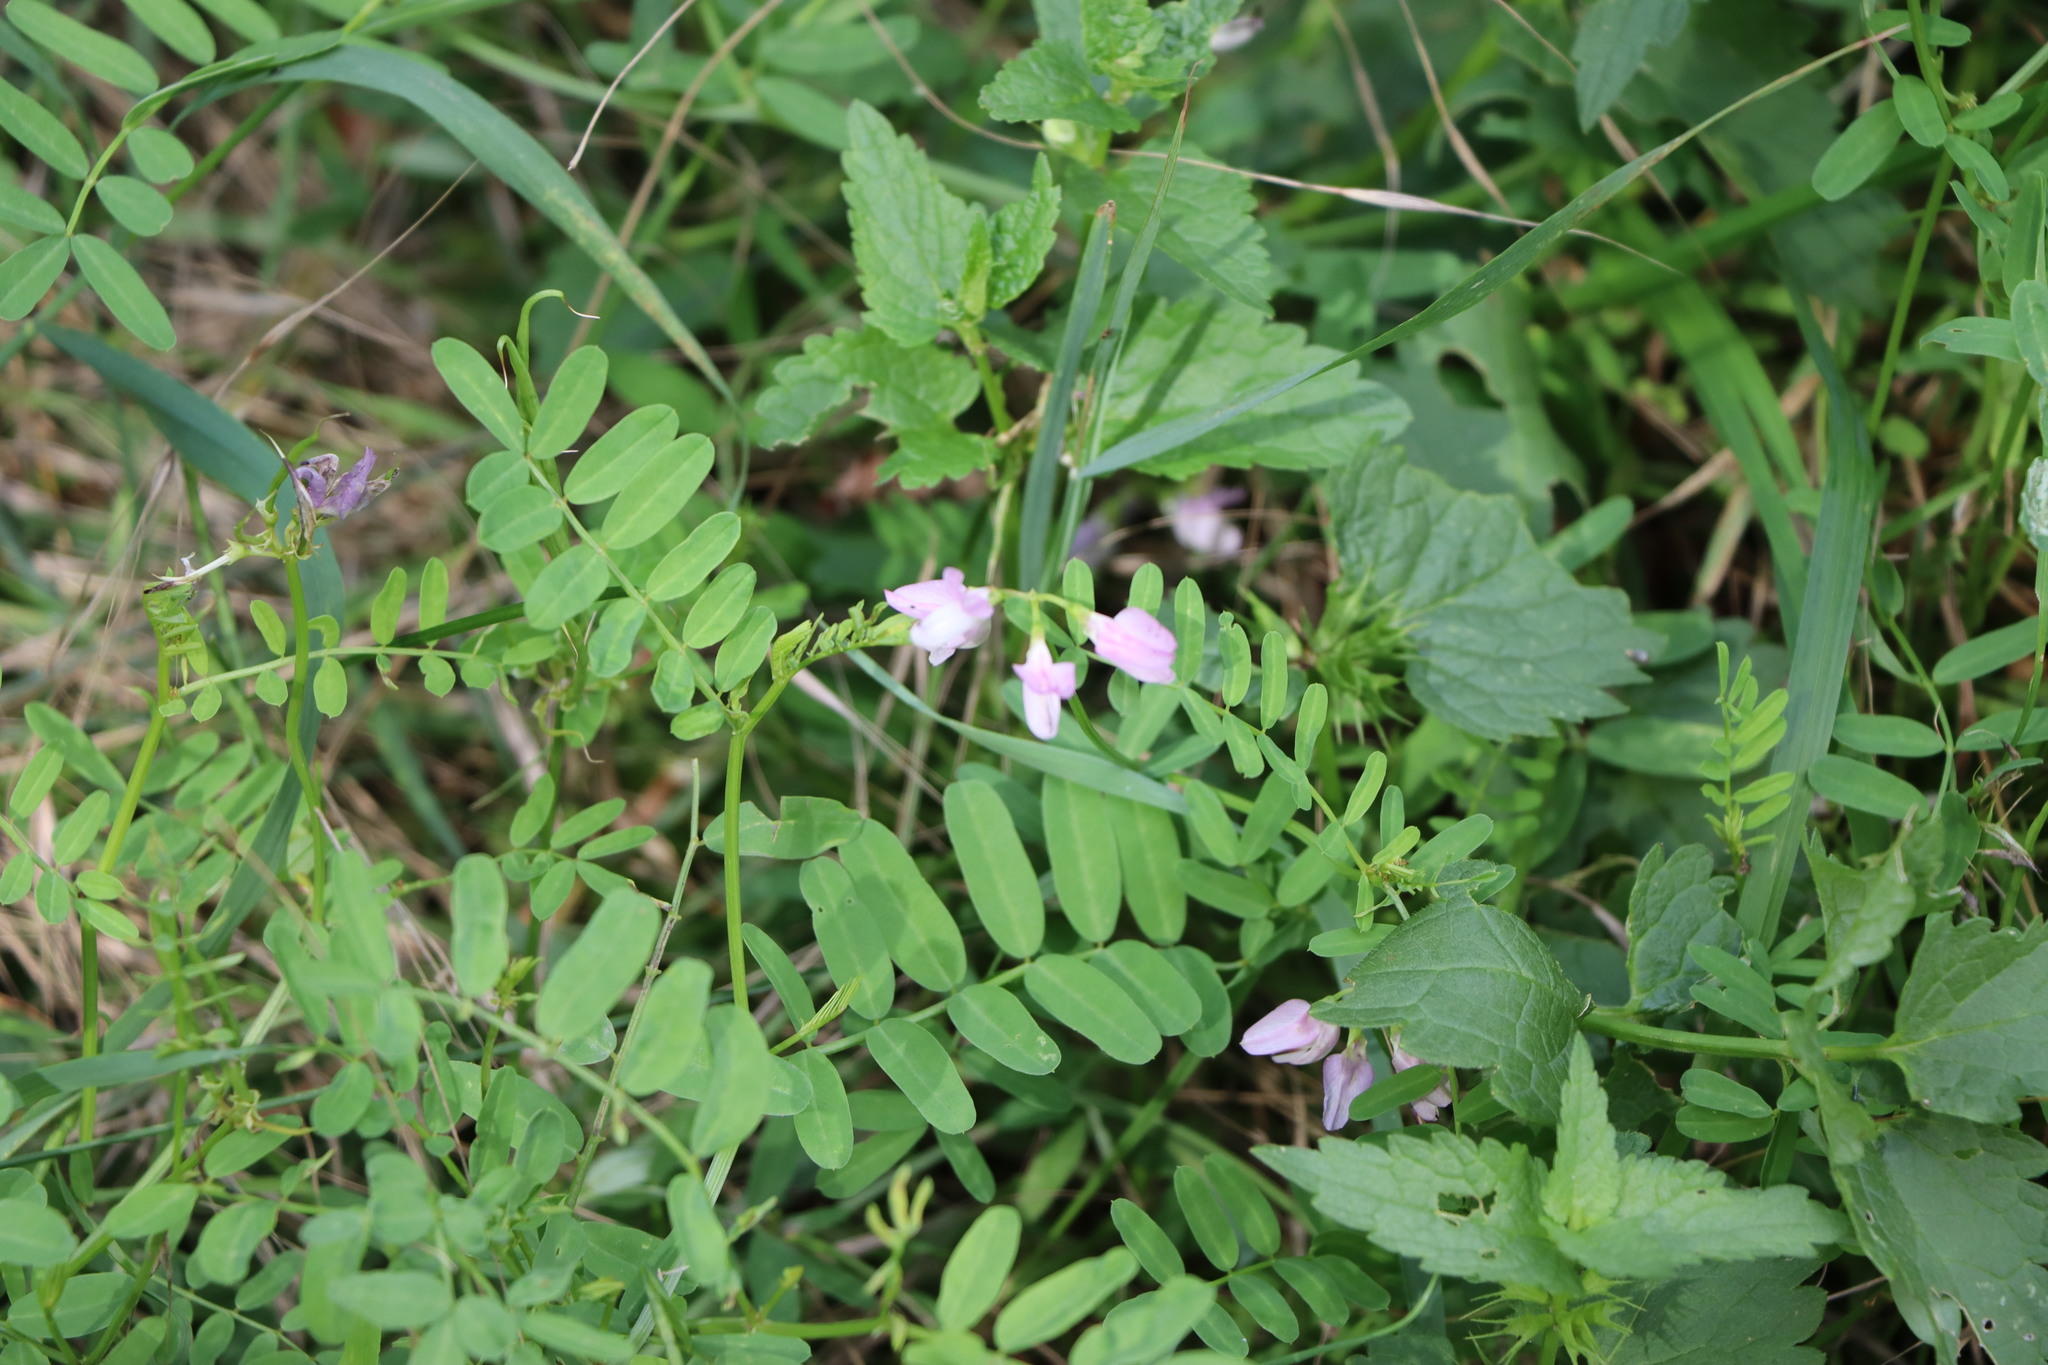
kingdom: Plantae
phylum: Tracheophyta
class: Magnoliopsida
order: Fabales
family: Fabaceae
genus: Coronilla
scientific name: Coronilla varia
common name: Crownvetch
